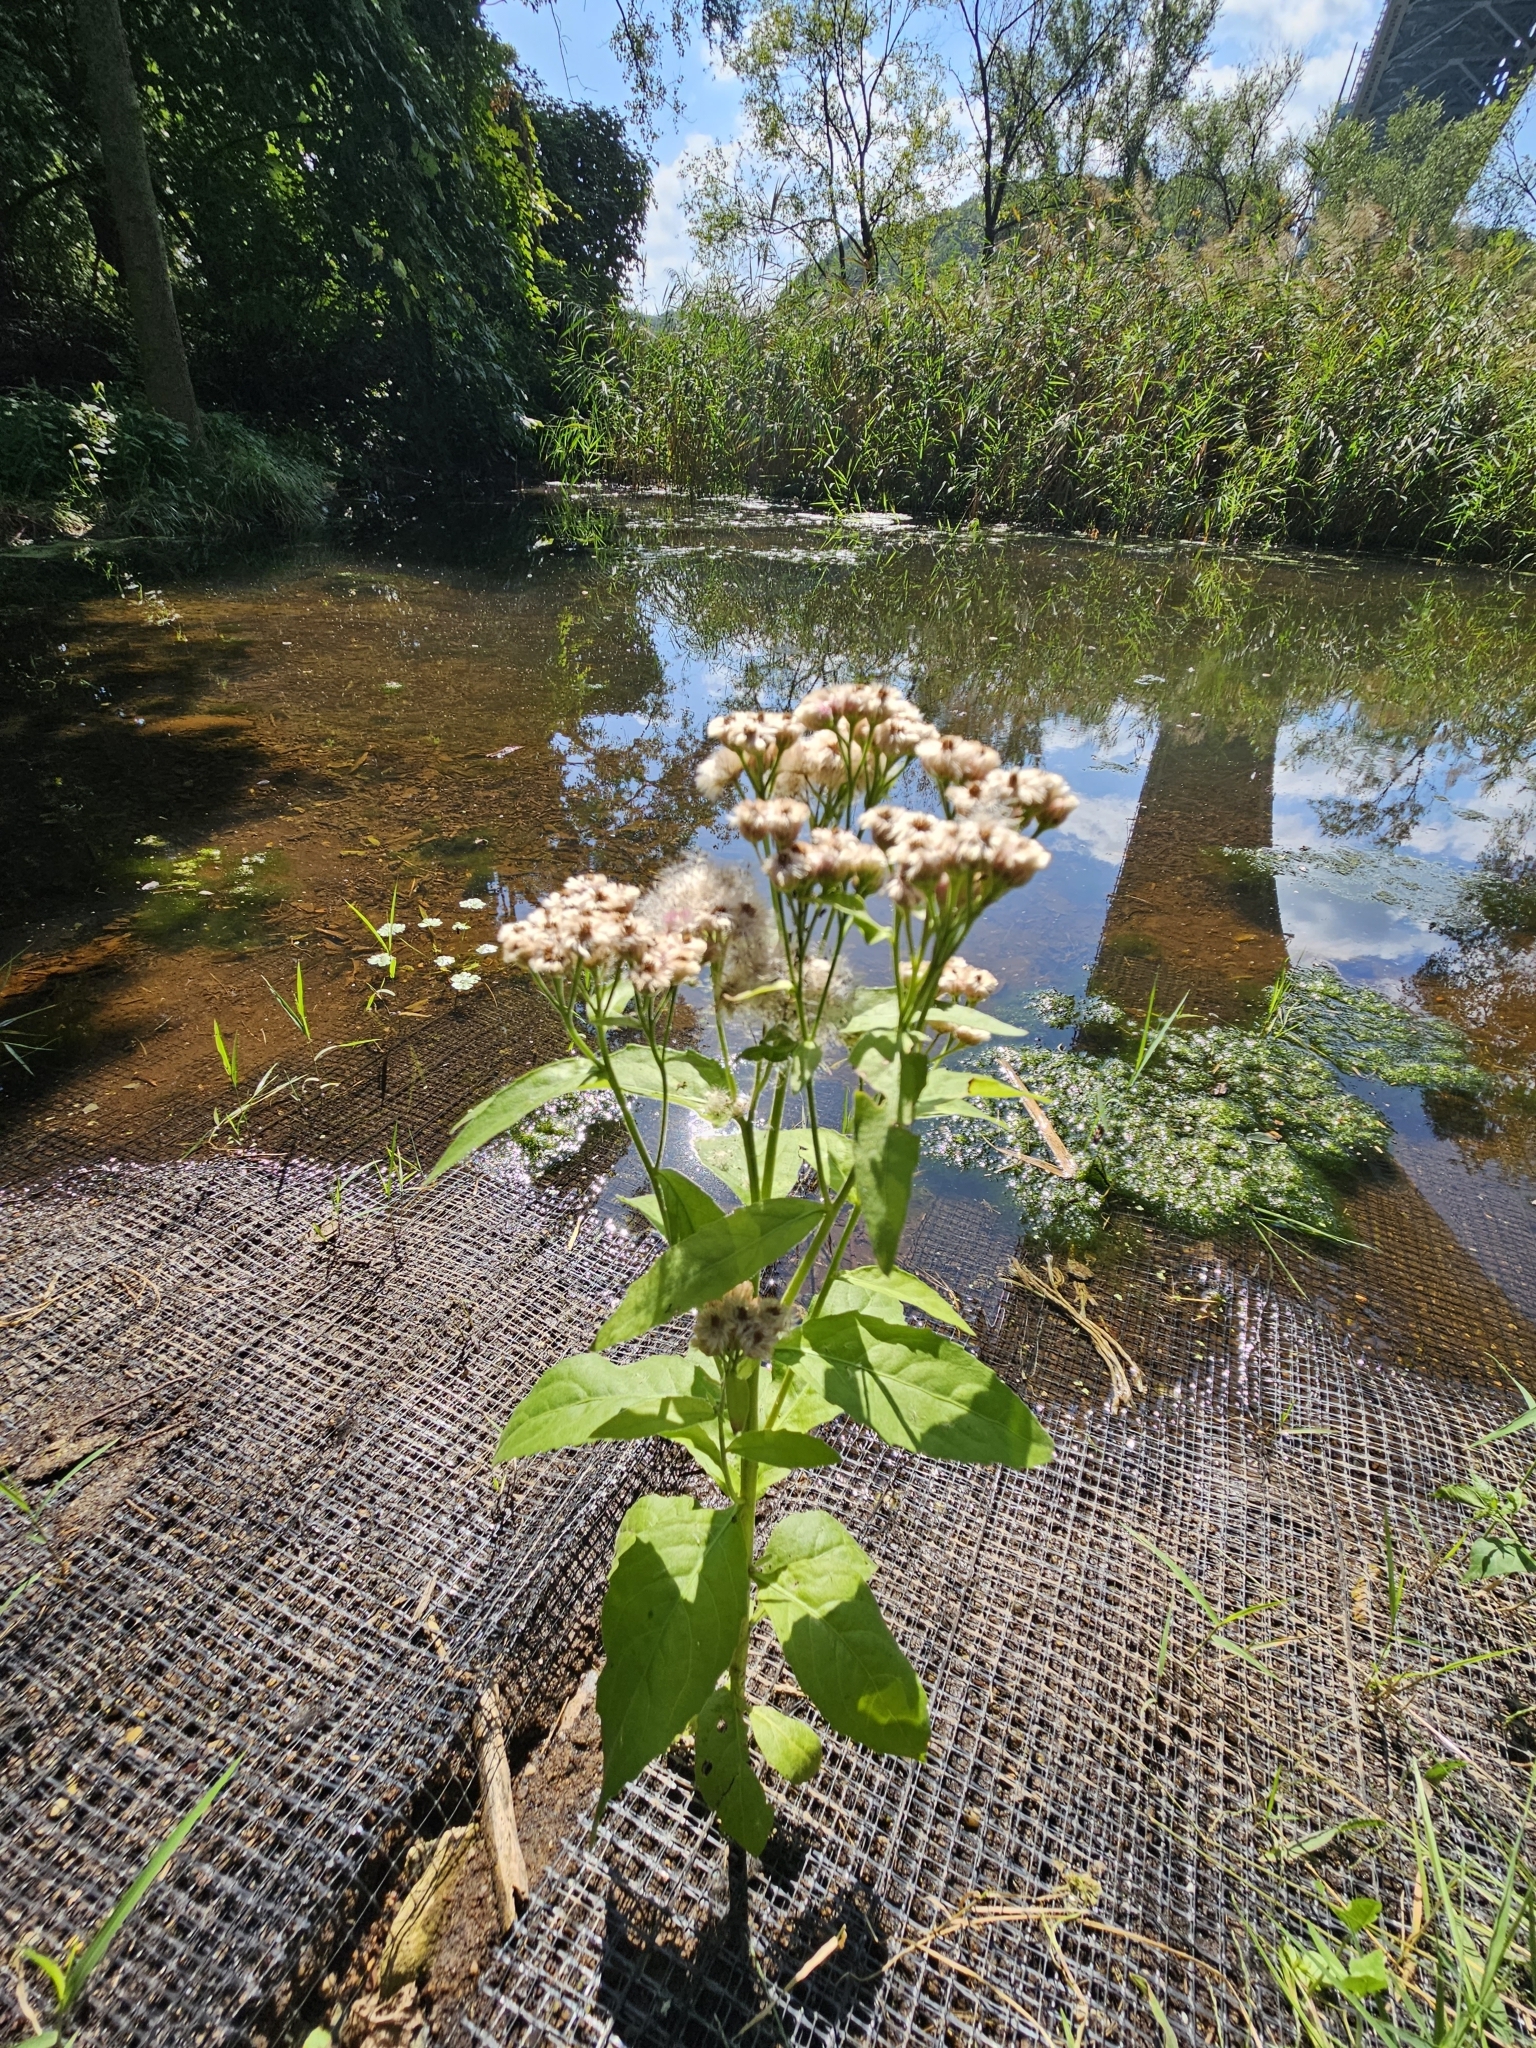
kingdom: Plantae
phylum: Tracheophyta
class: Magnoliopsida
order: Asterales
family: Asteraceae
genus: Pluchea
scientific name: Pluchea odorata
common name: Saltmarsh fleabane
